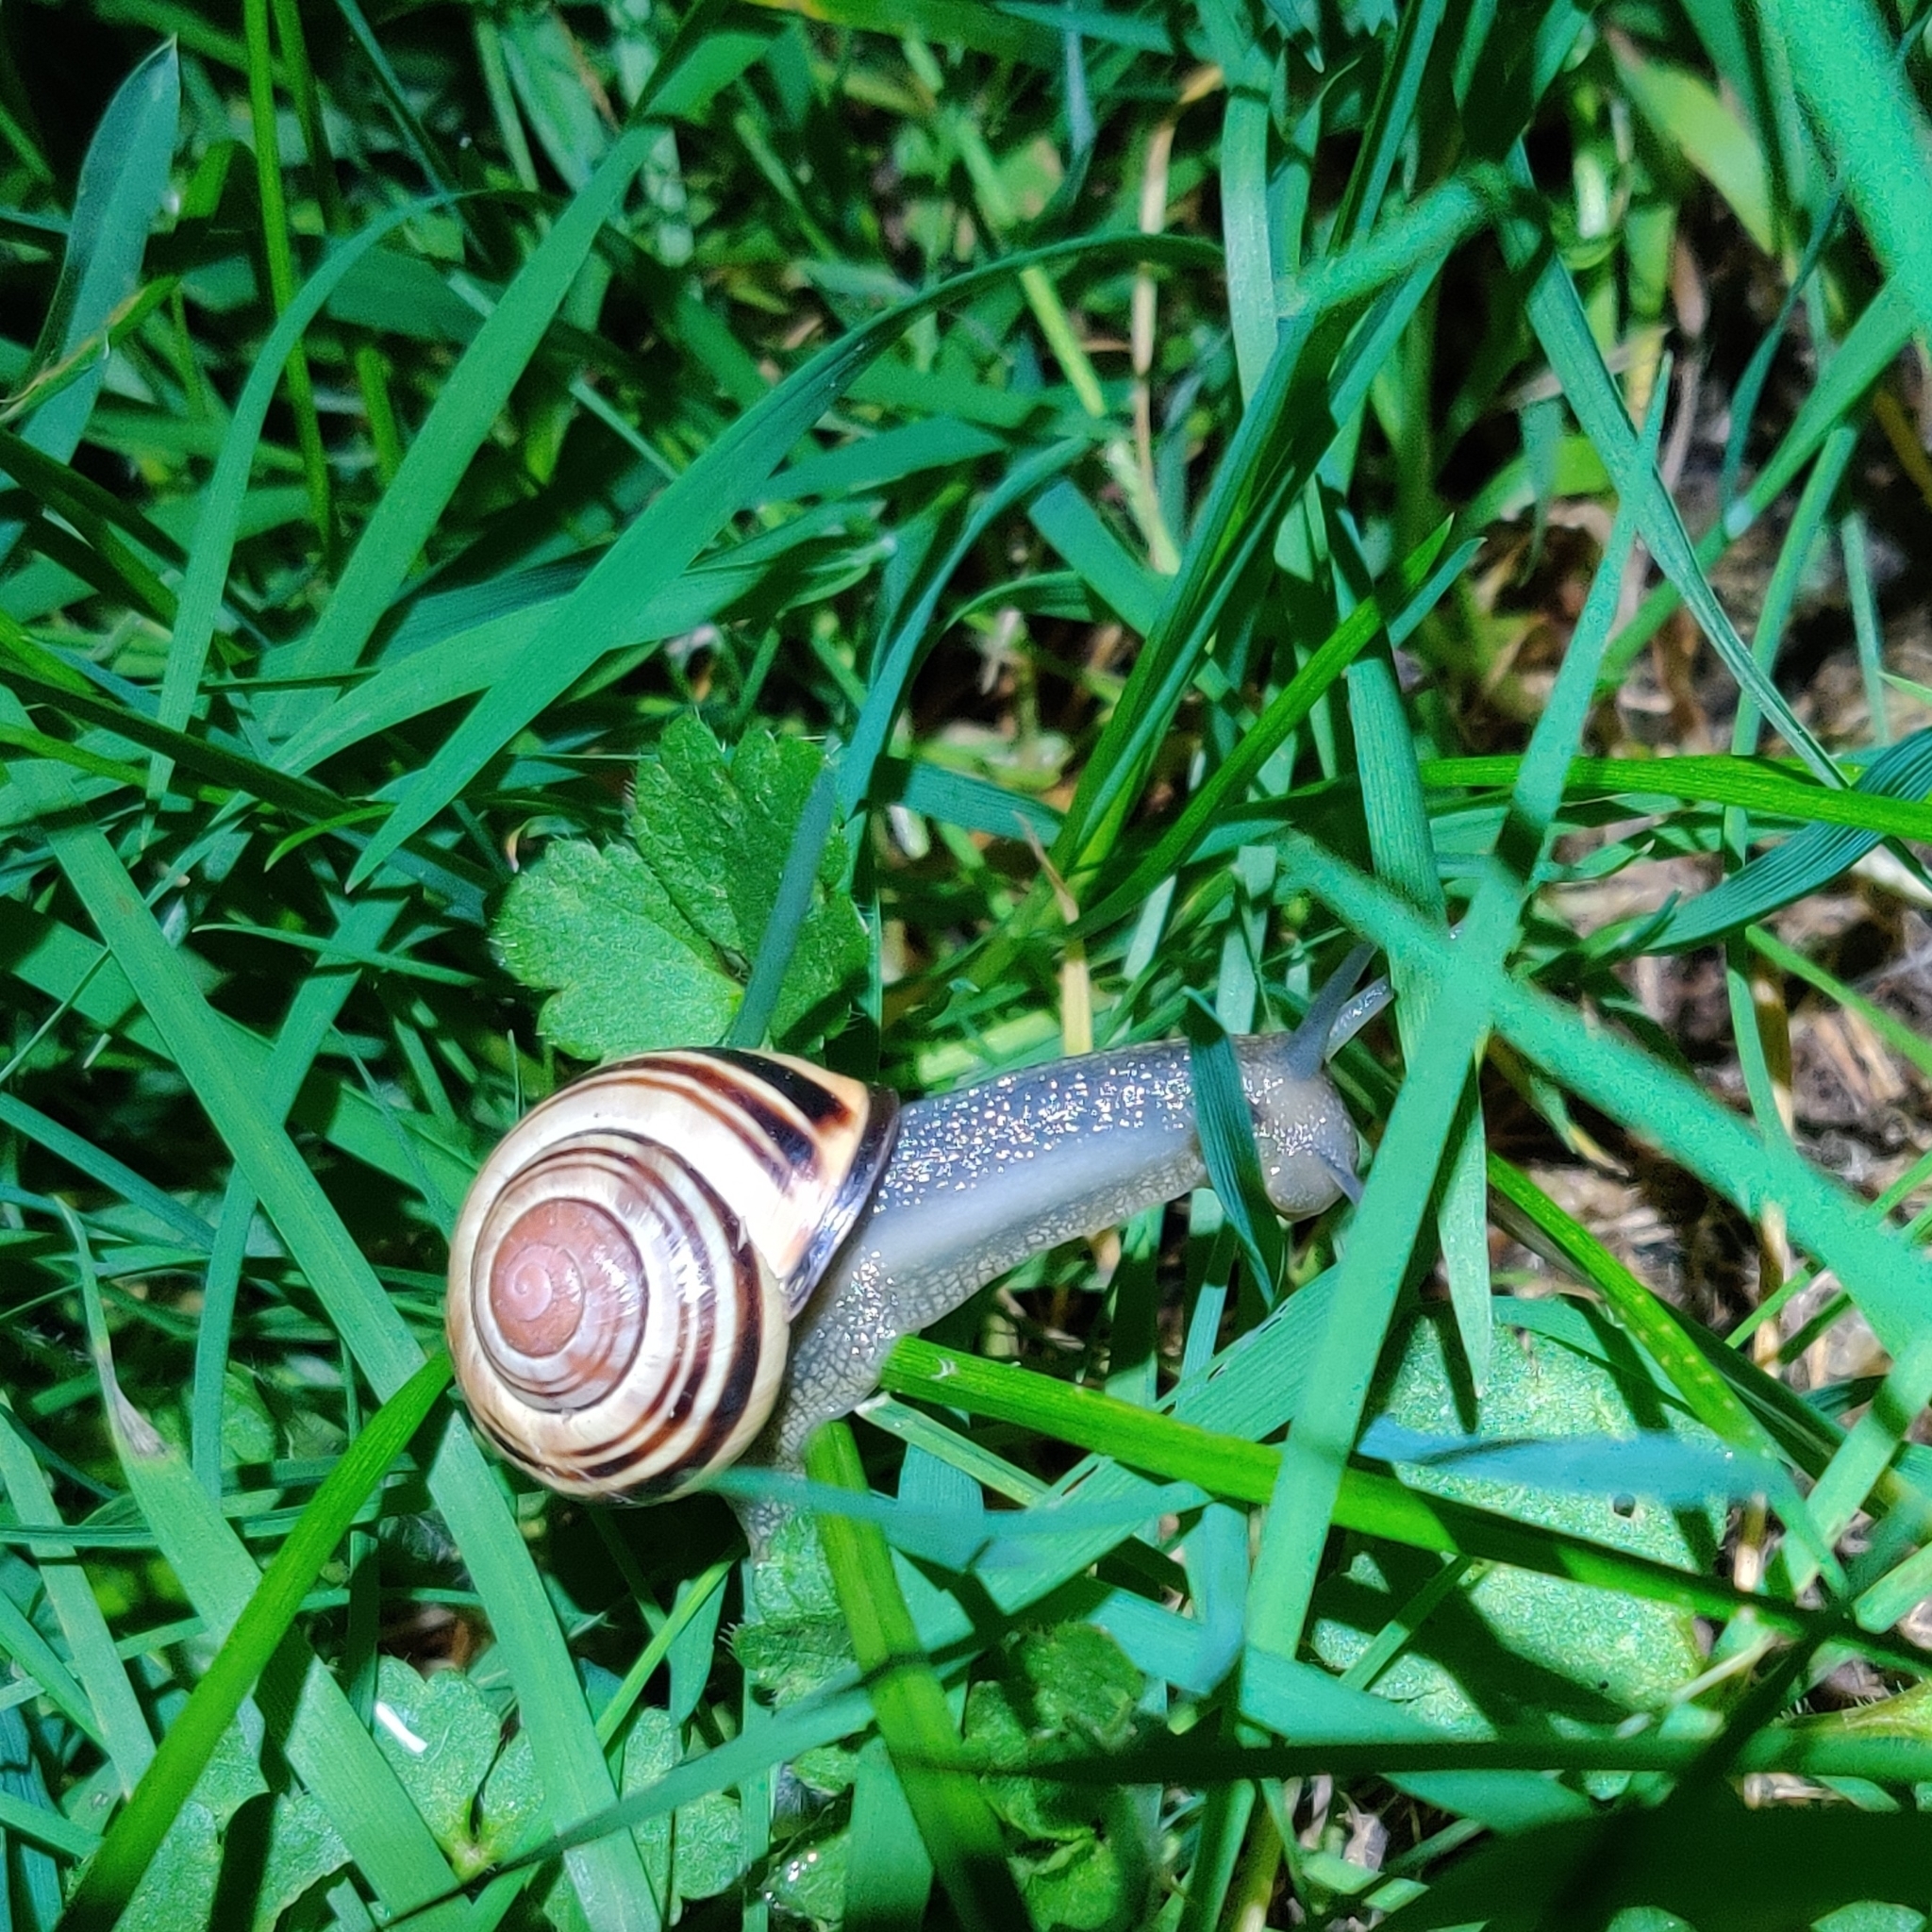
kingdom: Animalia
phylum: Mollusca
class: Gastropoda
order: Stylommatophora
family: Helicidae
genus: Cepaea
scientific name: Cepaea nemoralis
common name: Grovesnail
